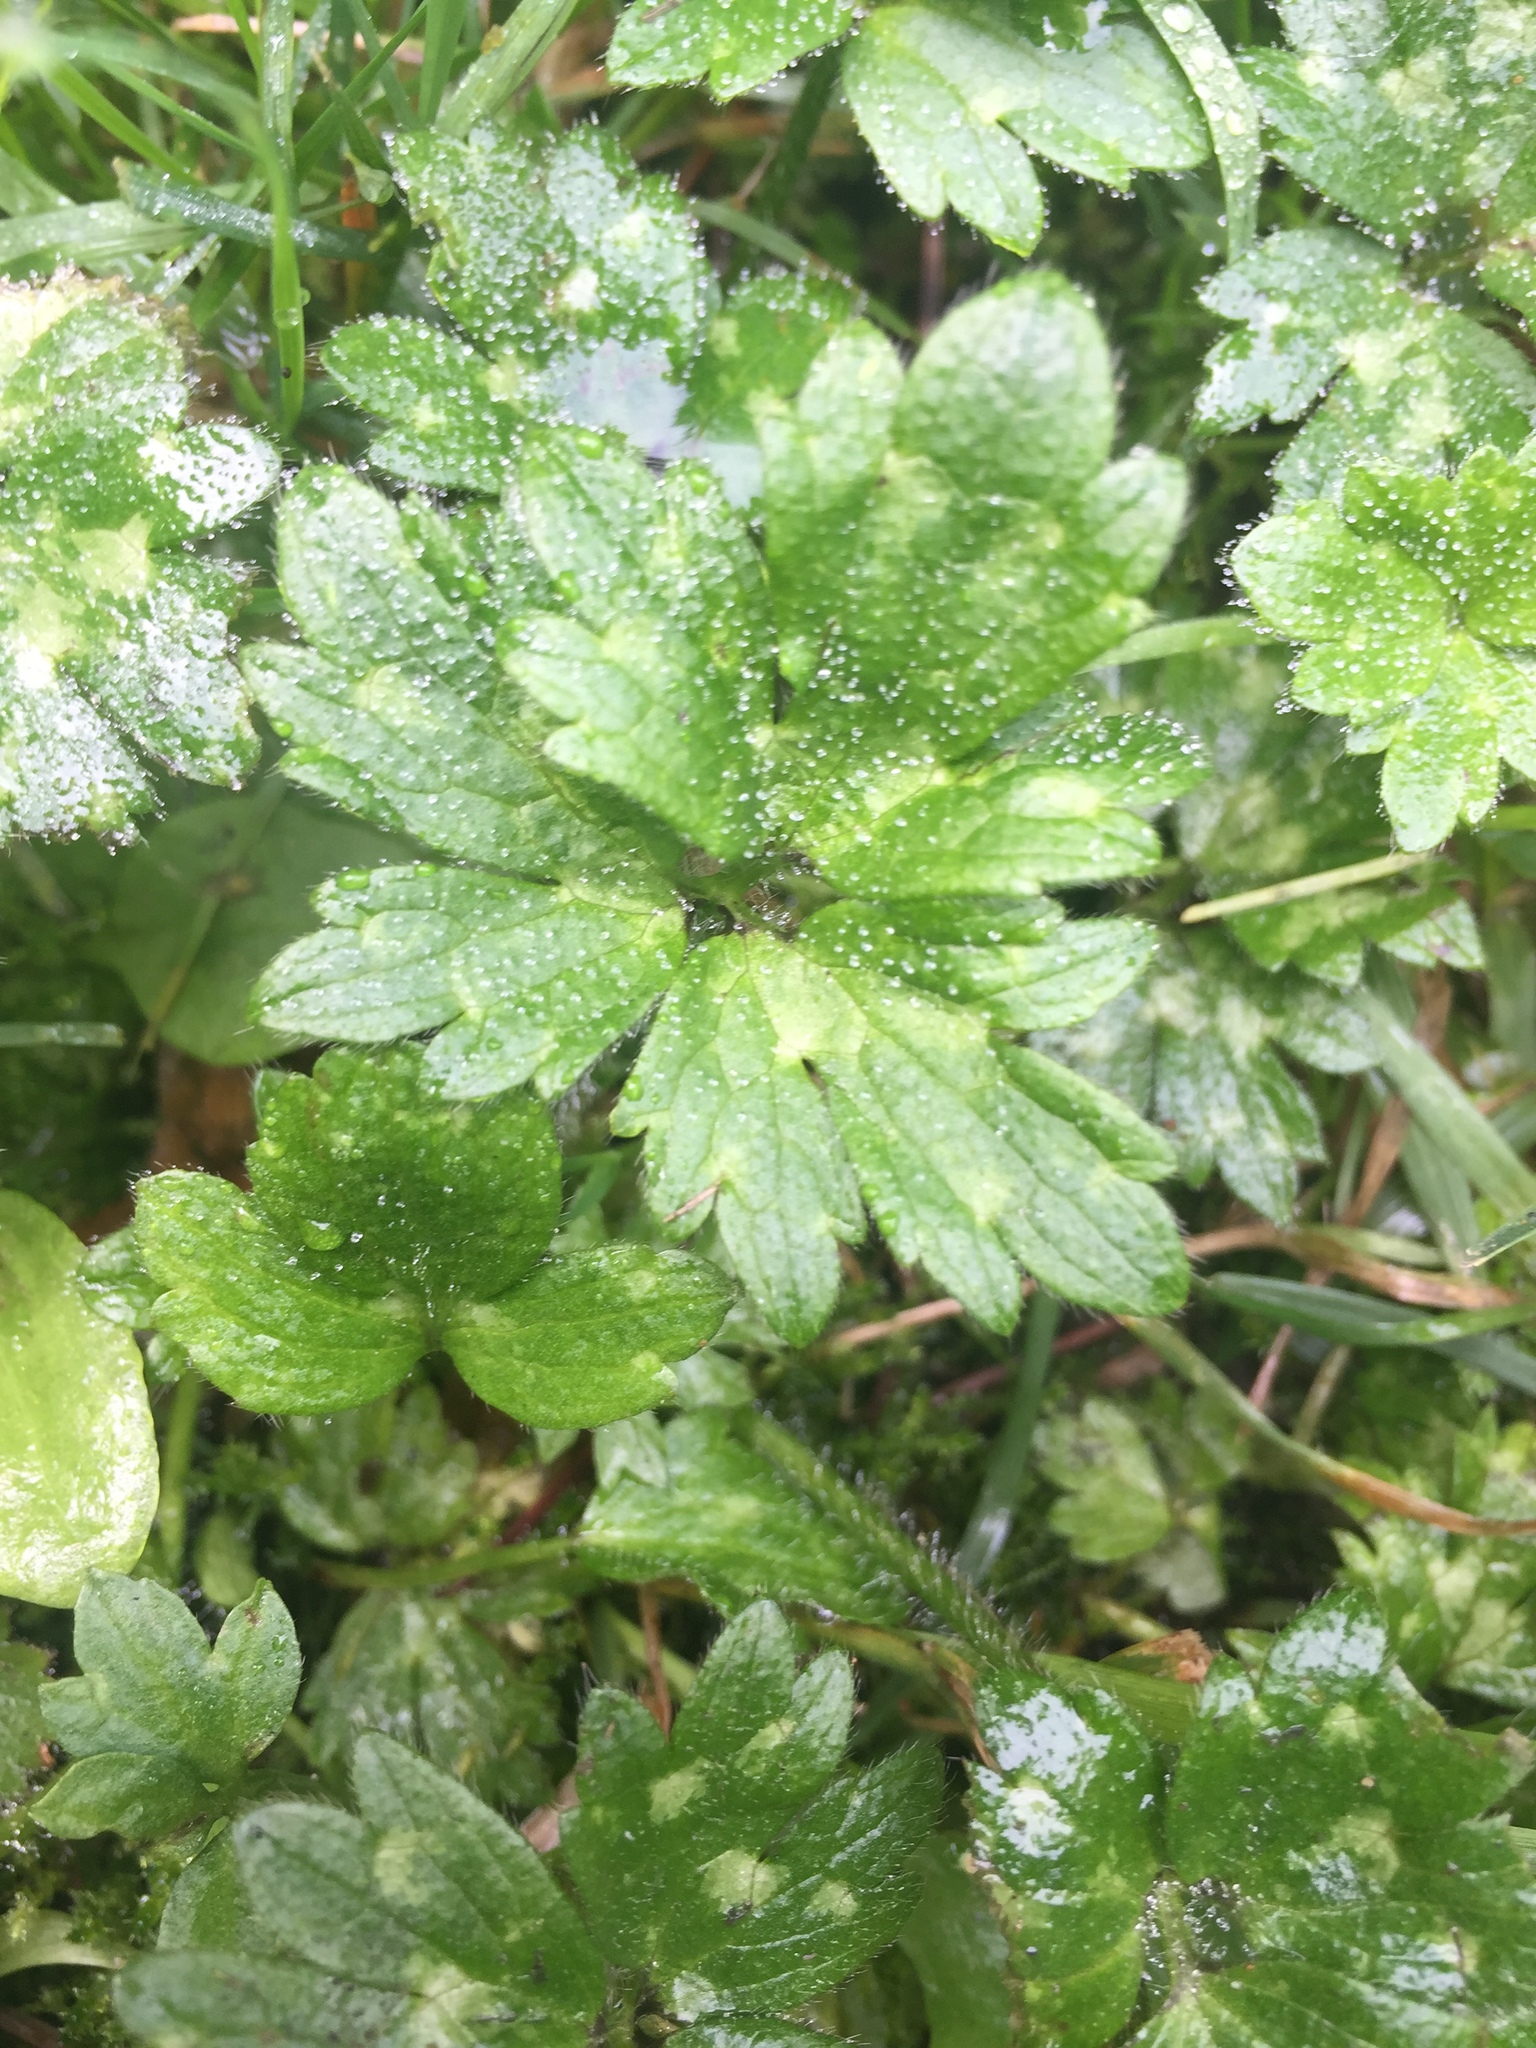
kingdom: Plantae
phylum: Tracheophyta
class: Magnoliopsida
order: Ranunculales
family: Ranunculaceae
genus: Ranunculus
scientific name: Ranunculus repens
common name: Creeping buttercup
